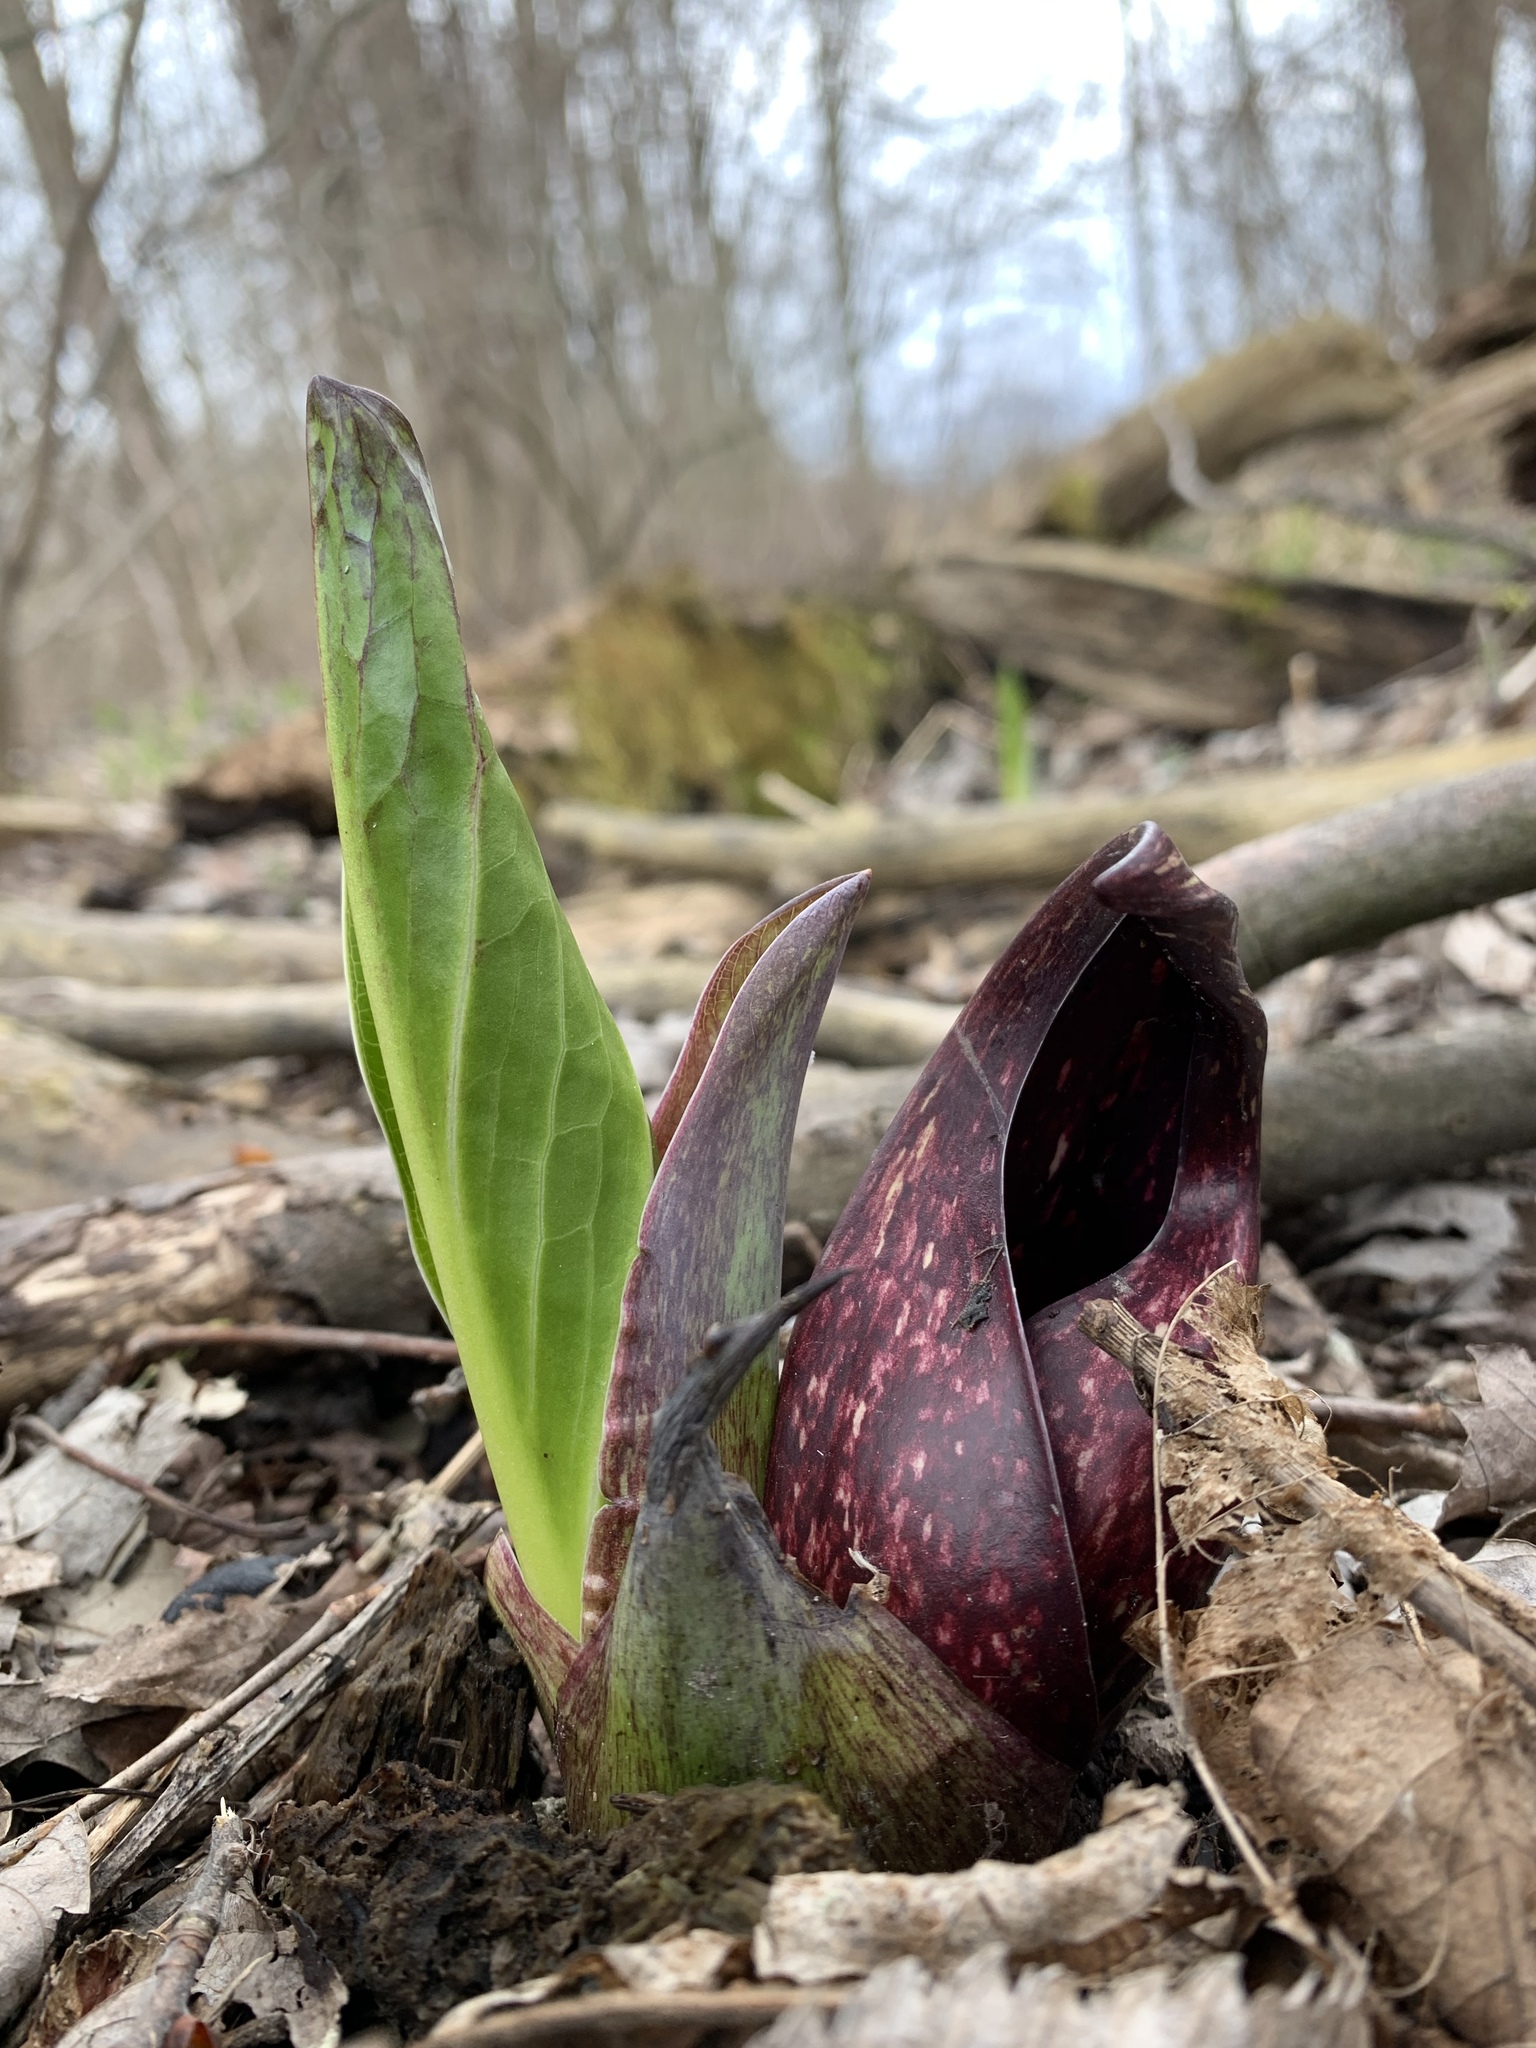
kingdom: Plantae
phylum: Tracheophyta
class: Liliopsida
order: Alismatales
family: Araceae
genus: Symplocarpus
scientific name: Symplocarpus foetidus
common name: Eastern skunk cabbage
